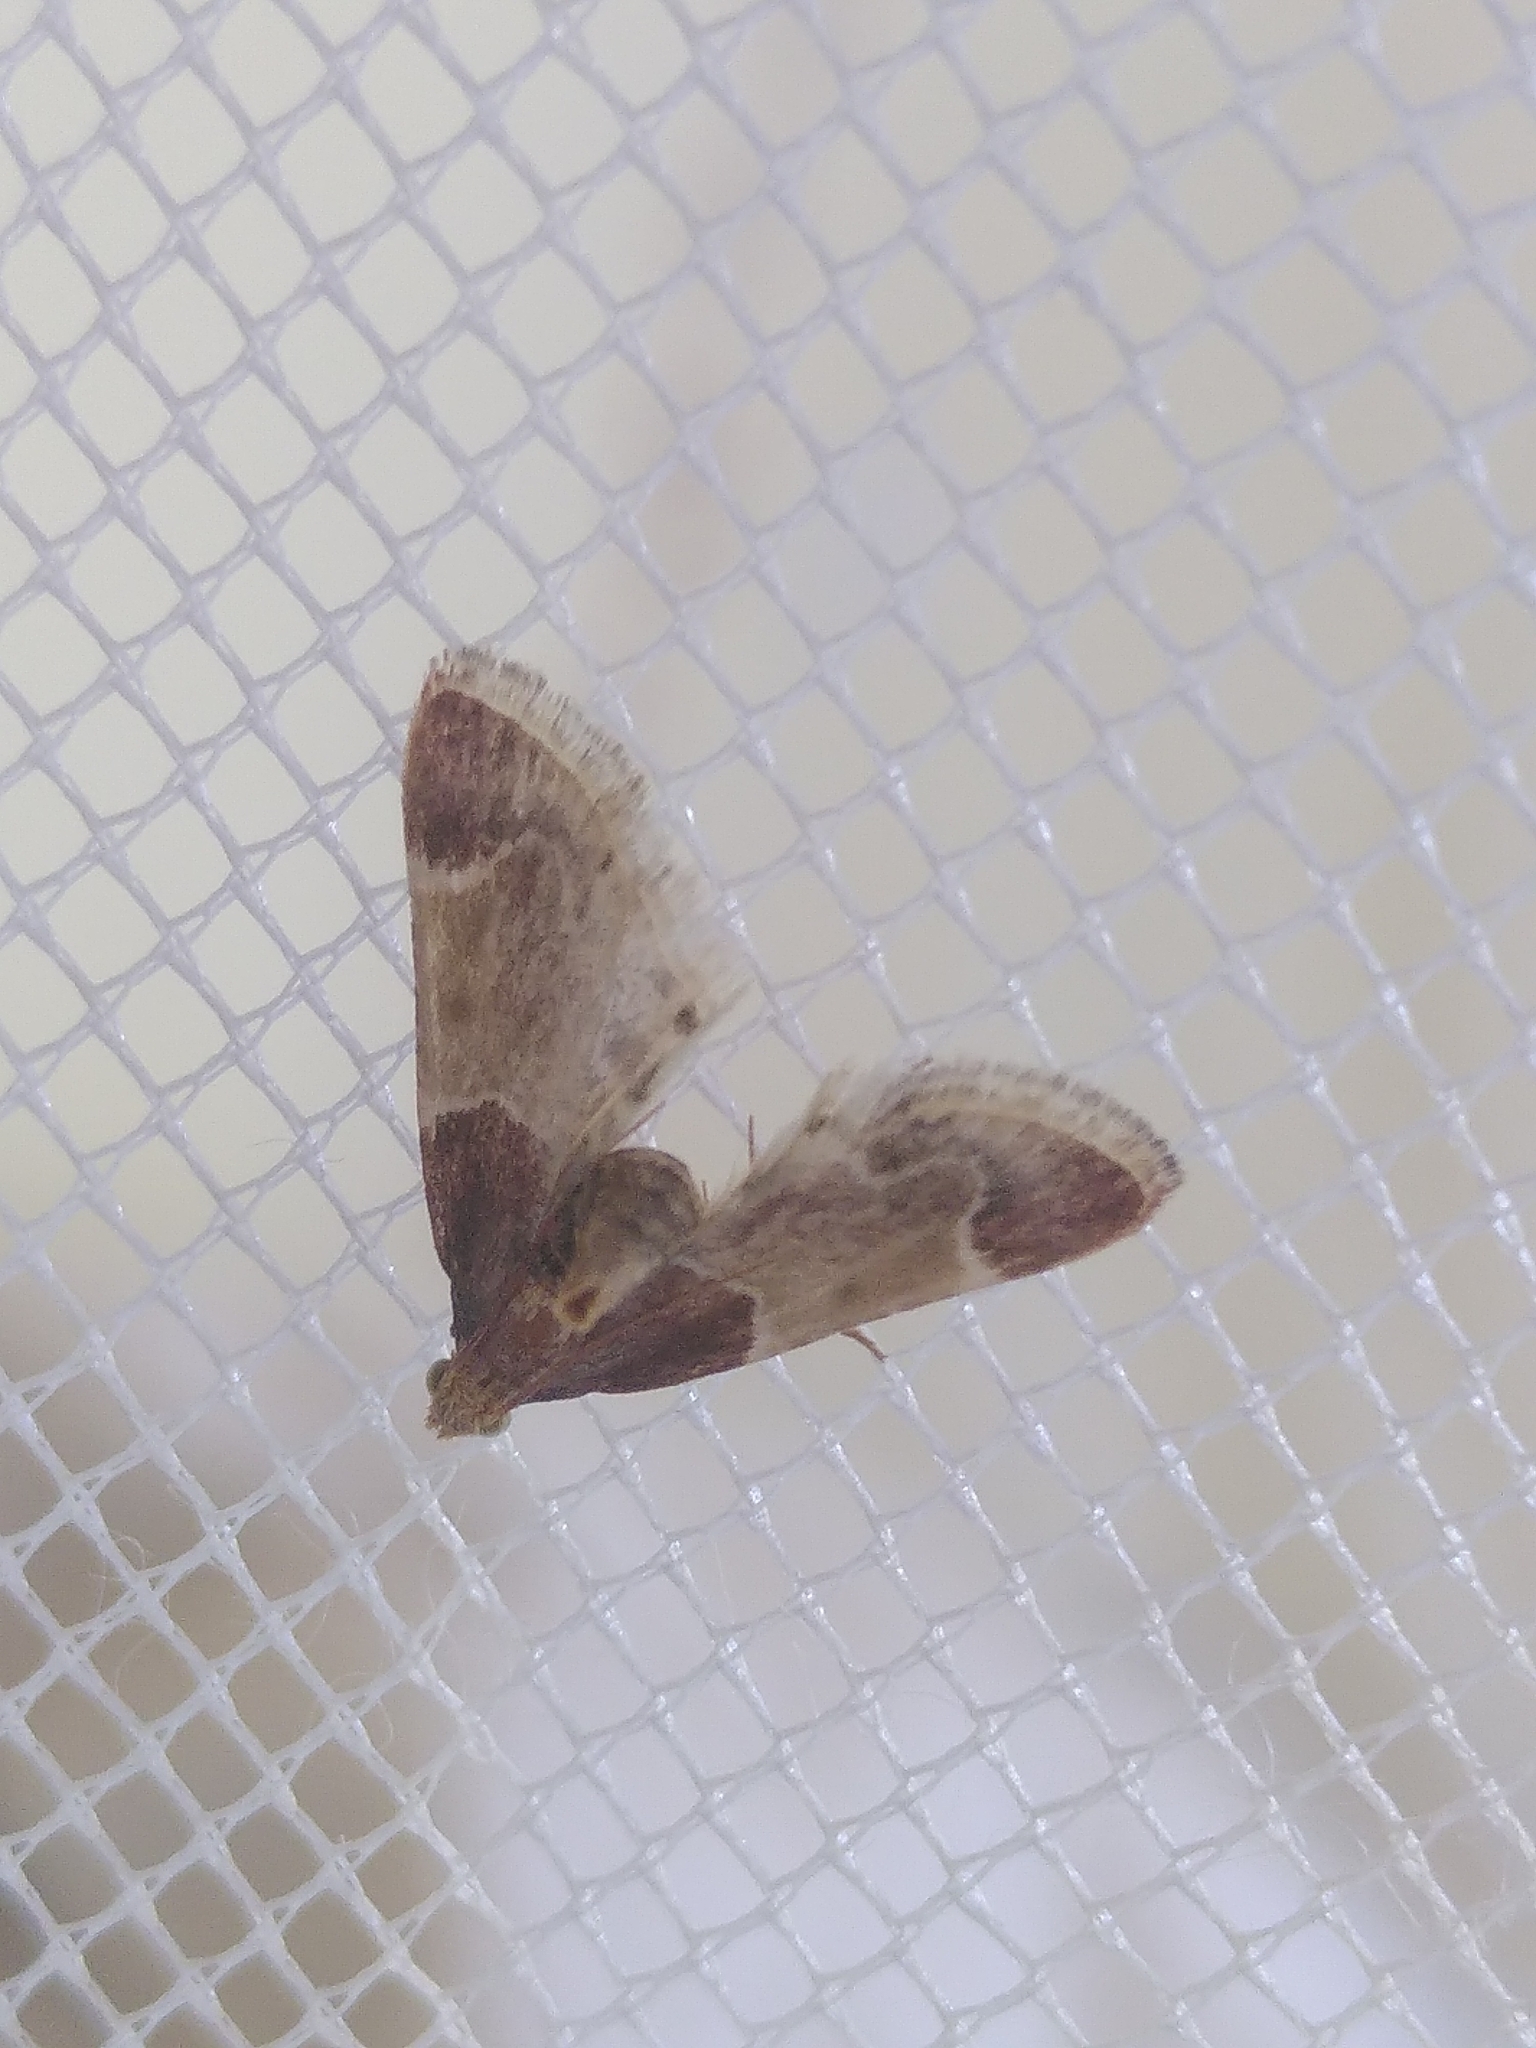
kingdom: Animalia
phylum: Arthropoda
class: Insecta
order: Lepidoptera
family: Pyralidae
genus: Pyralis
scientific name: Pyralis farinalis
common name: Meal moth
